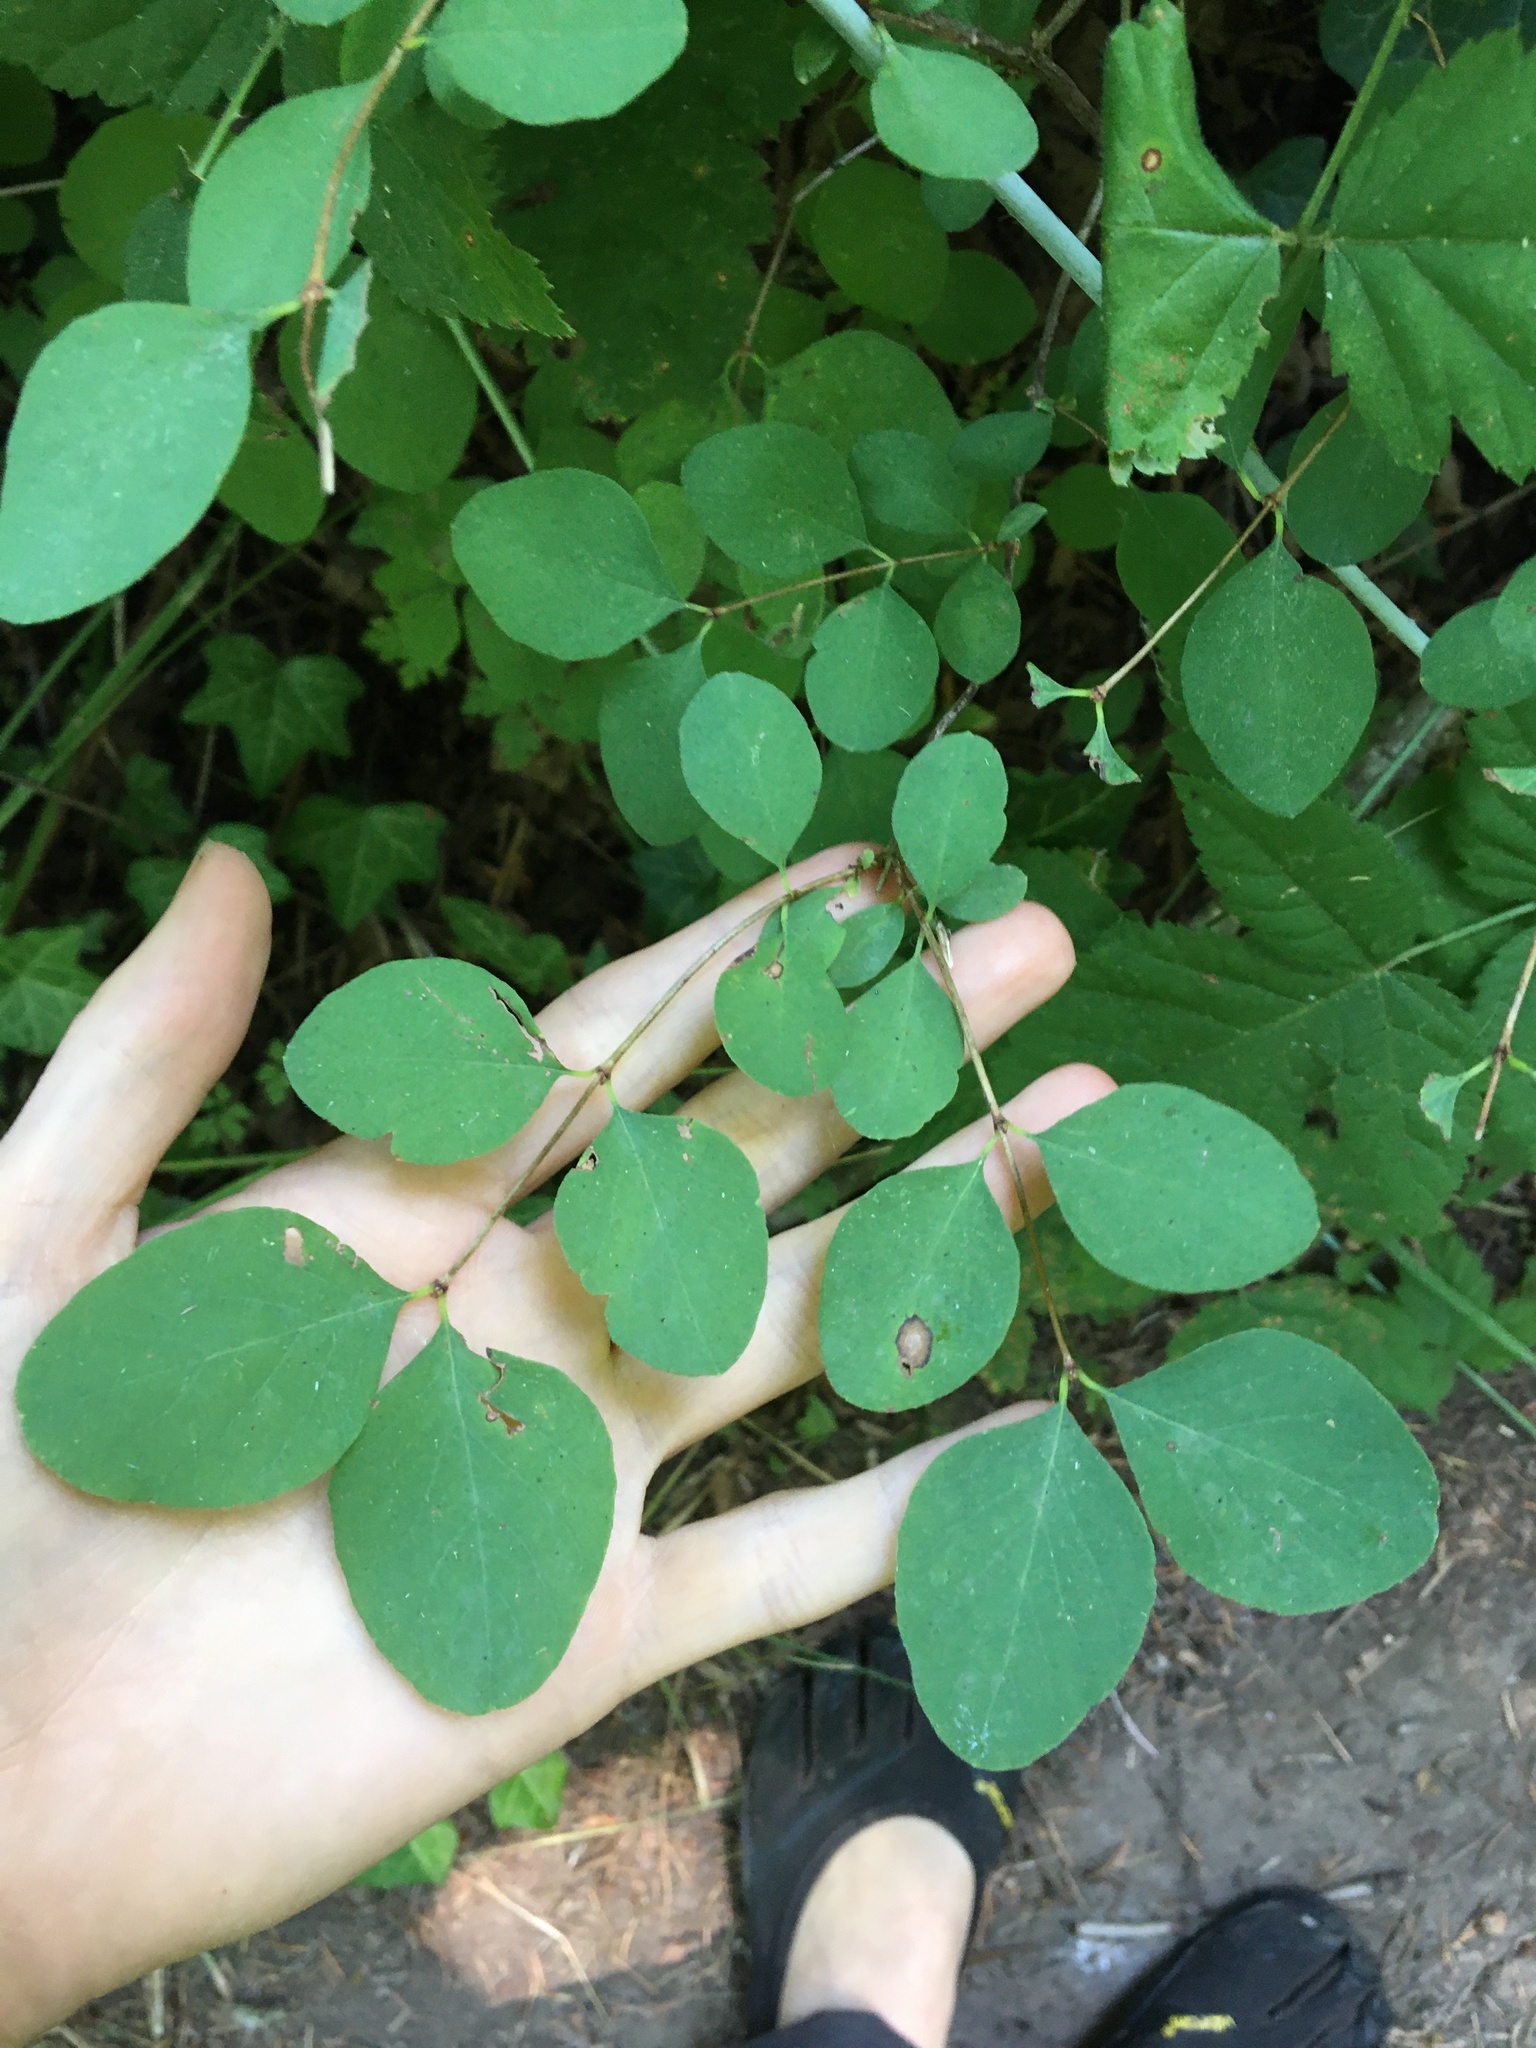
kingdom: Plantae
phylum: Tracheophyta
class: Magnoliopsida
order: Dipsacales
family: Caprifoliaceae
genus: Symphoricarpos
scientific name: Symphoricarpos albus
